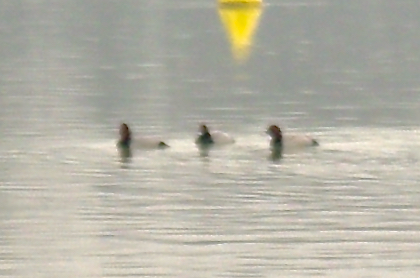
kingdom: Animalia
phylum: Chordata
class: Aves
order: Anseriformes
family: Anatidae
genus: Aythya
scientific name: Aythya ferina
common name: Common pochard
